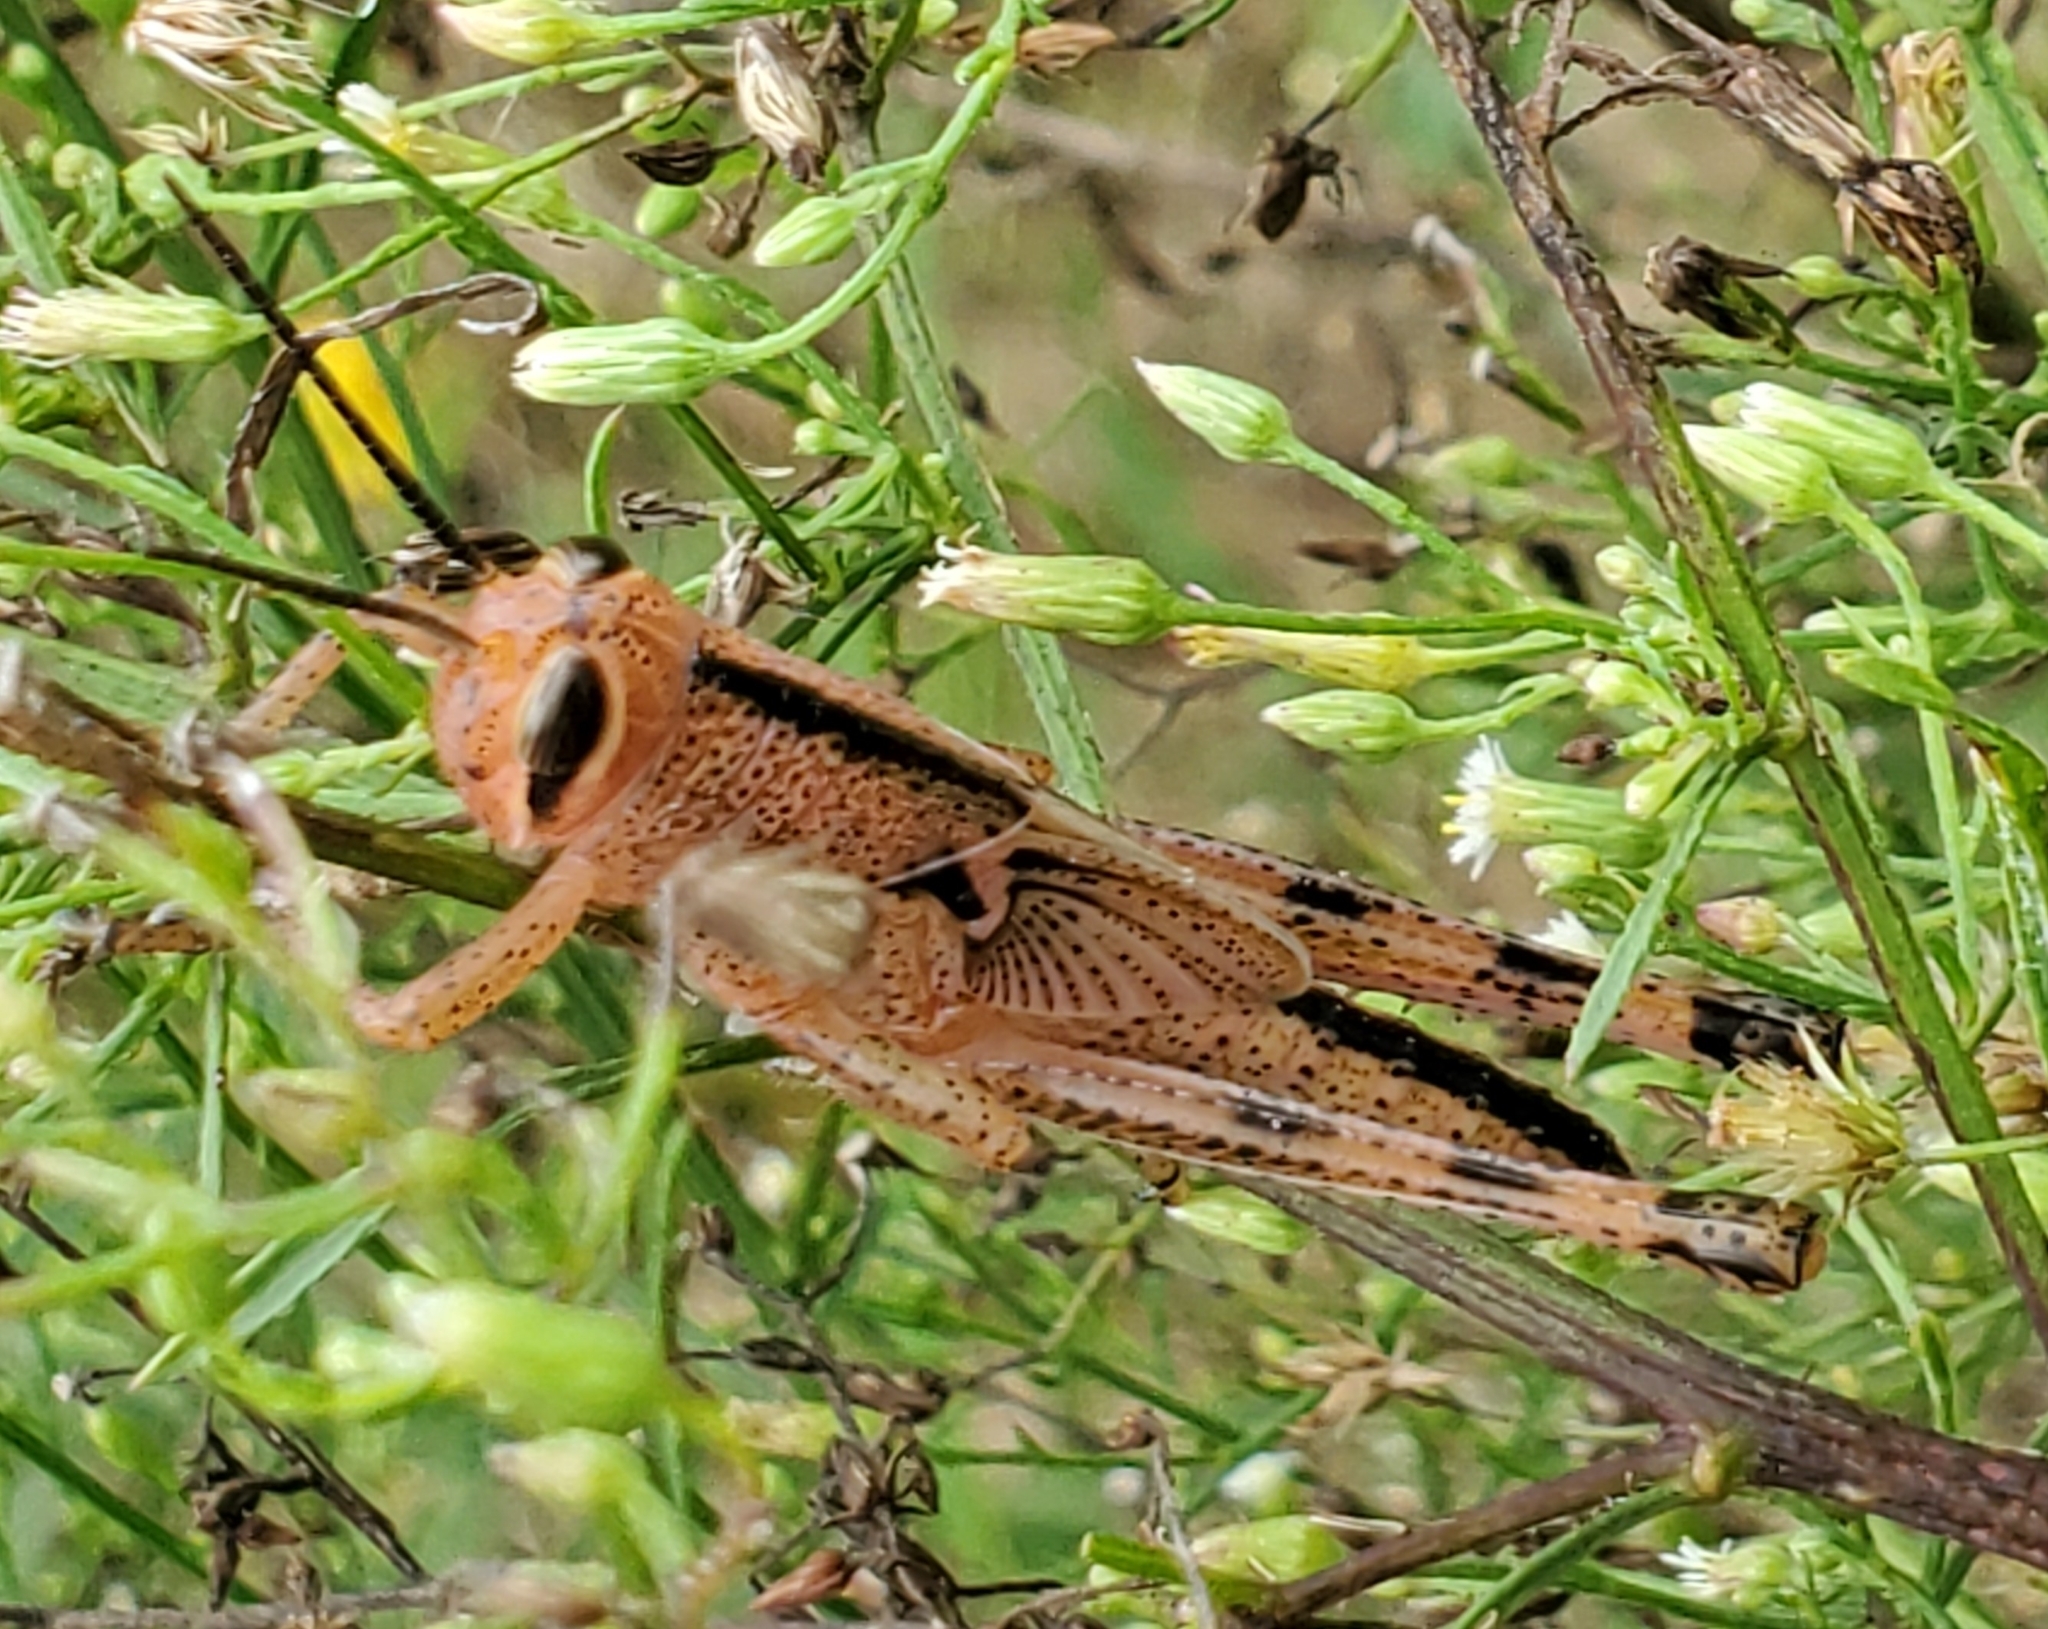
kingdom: Animalia
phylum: Arthropoda
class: Insecta
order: Orthoptera
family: Acrididae
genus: Schistocerca
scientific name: Schistocerca americana
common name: American bird locust
